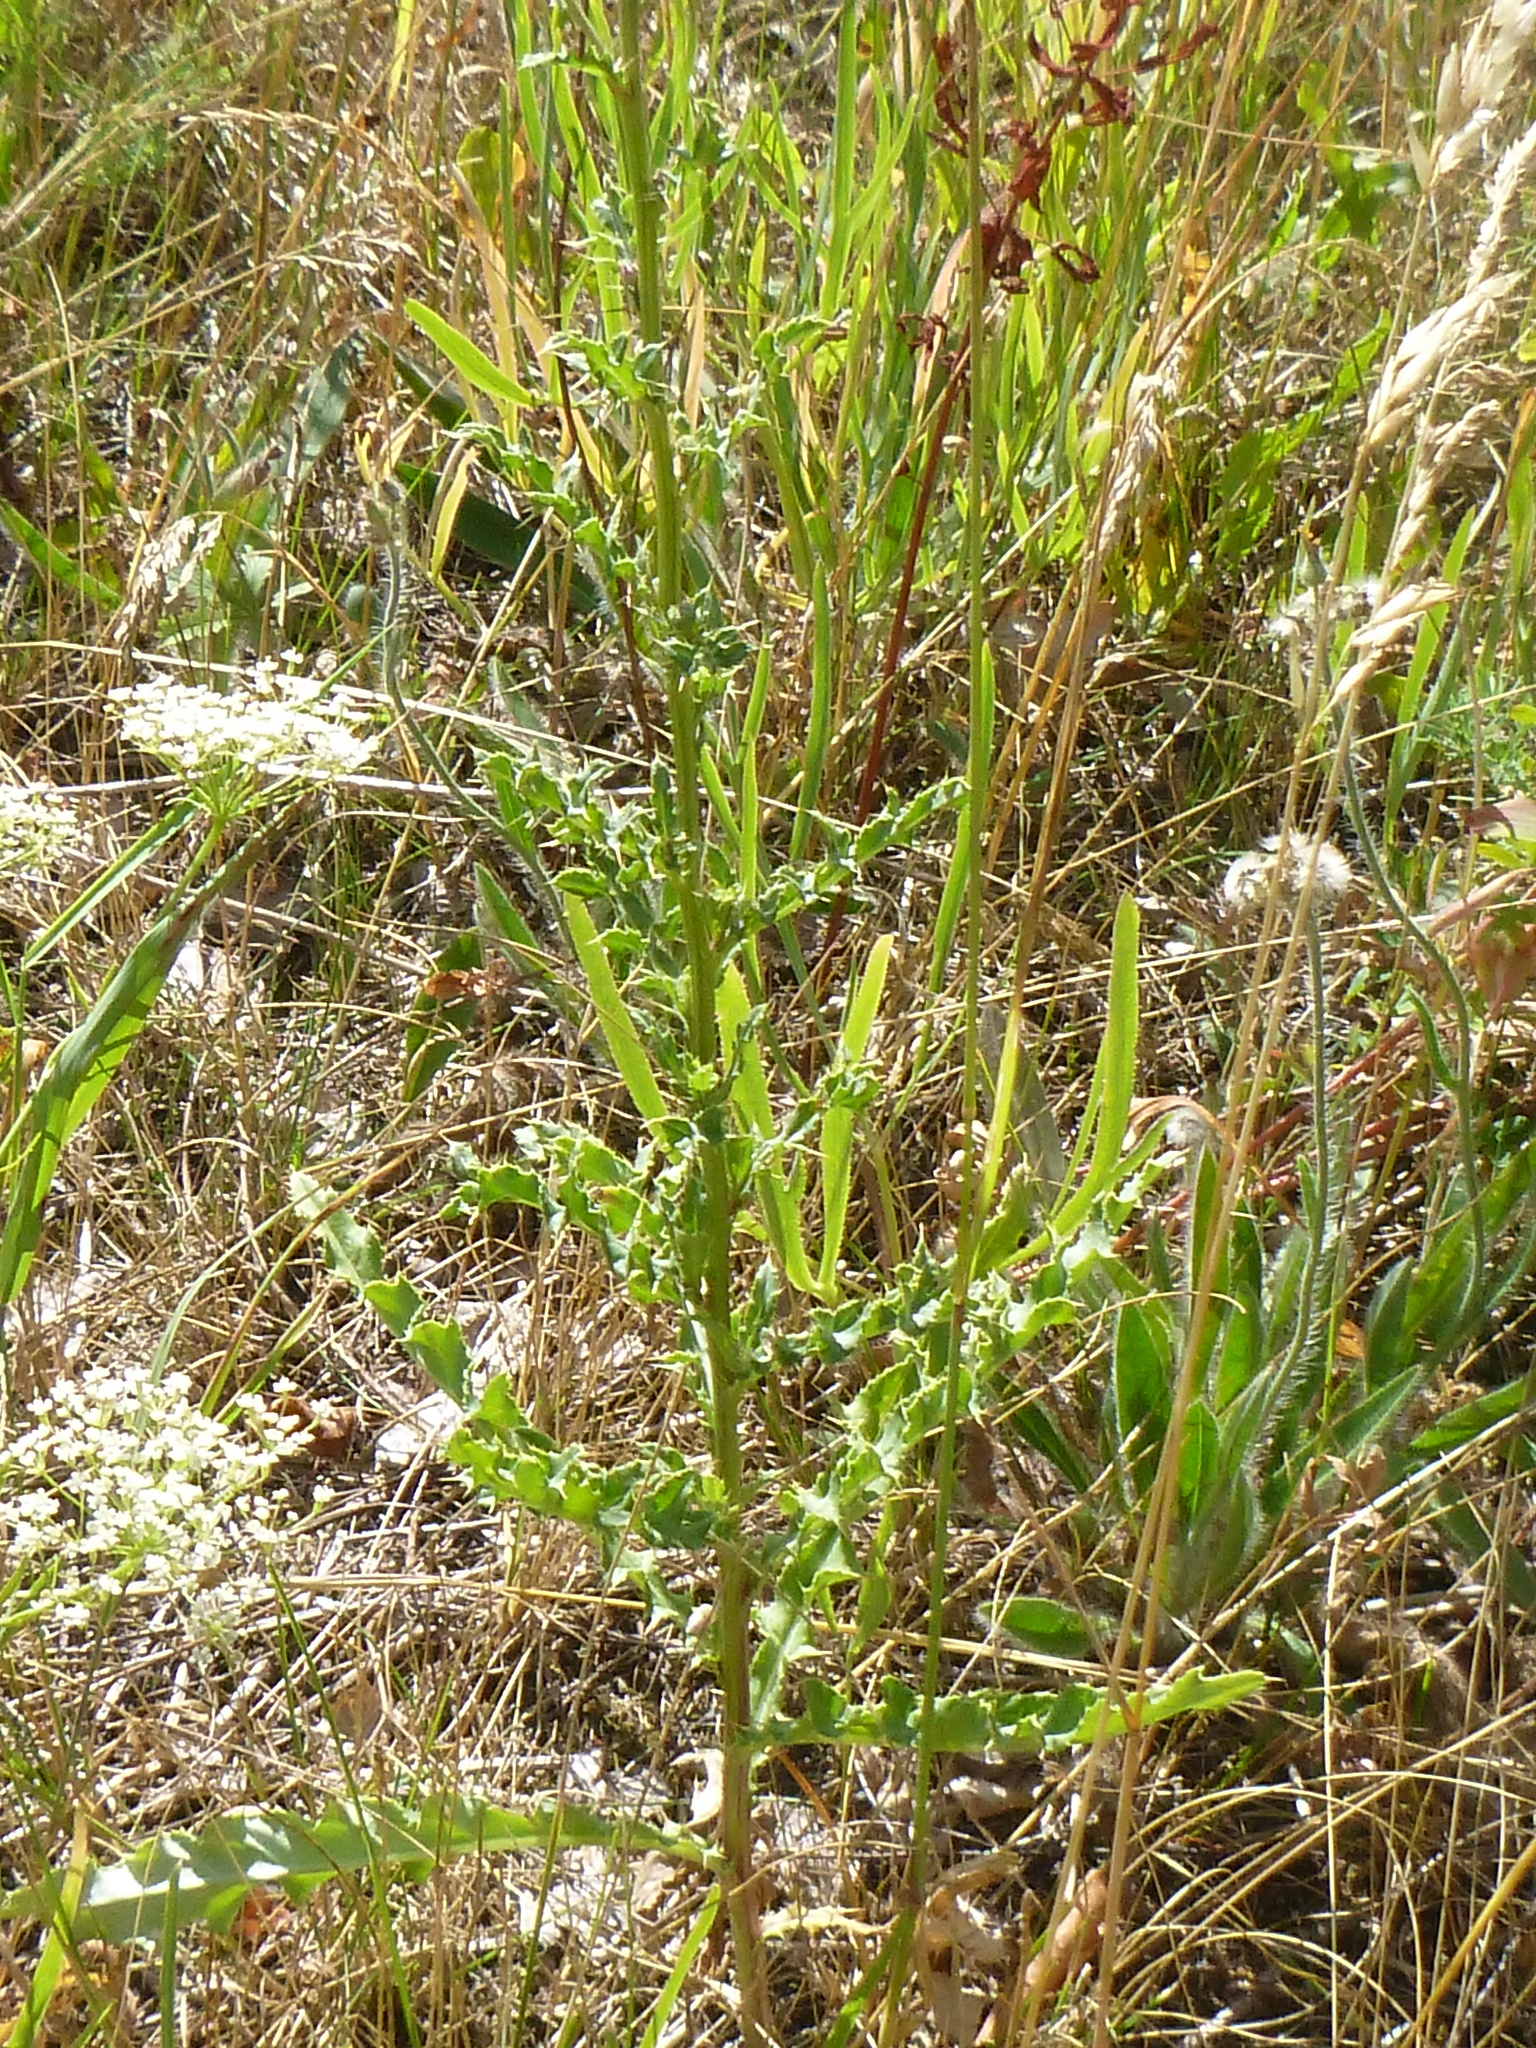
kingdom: Plantae
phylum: Tracheophyta
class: Magnoliopsida
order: Asterales
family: Asteraceae
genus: Cirsium
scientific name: Cirsium arvense
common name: Creeping thistle
